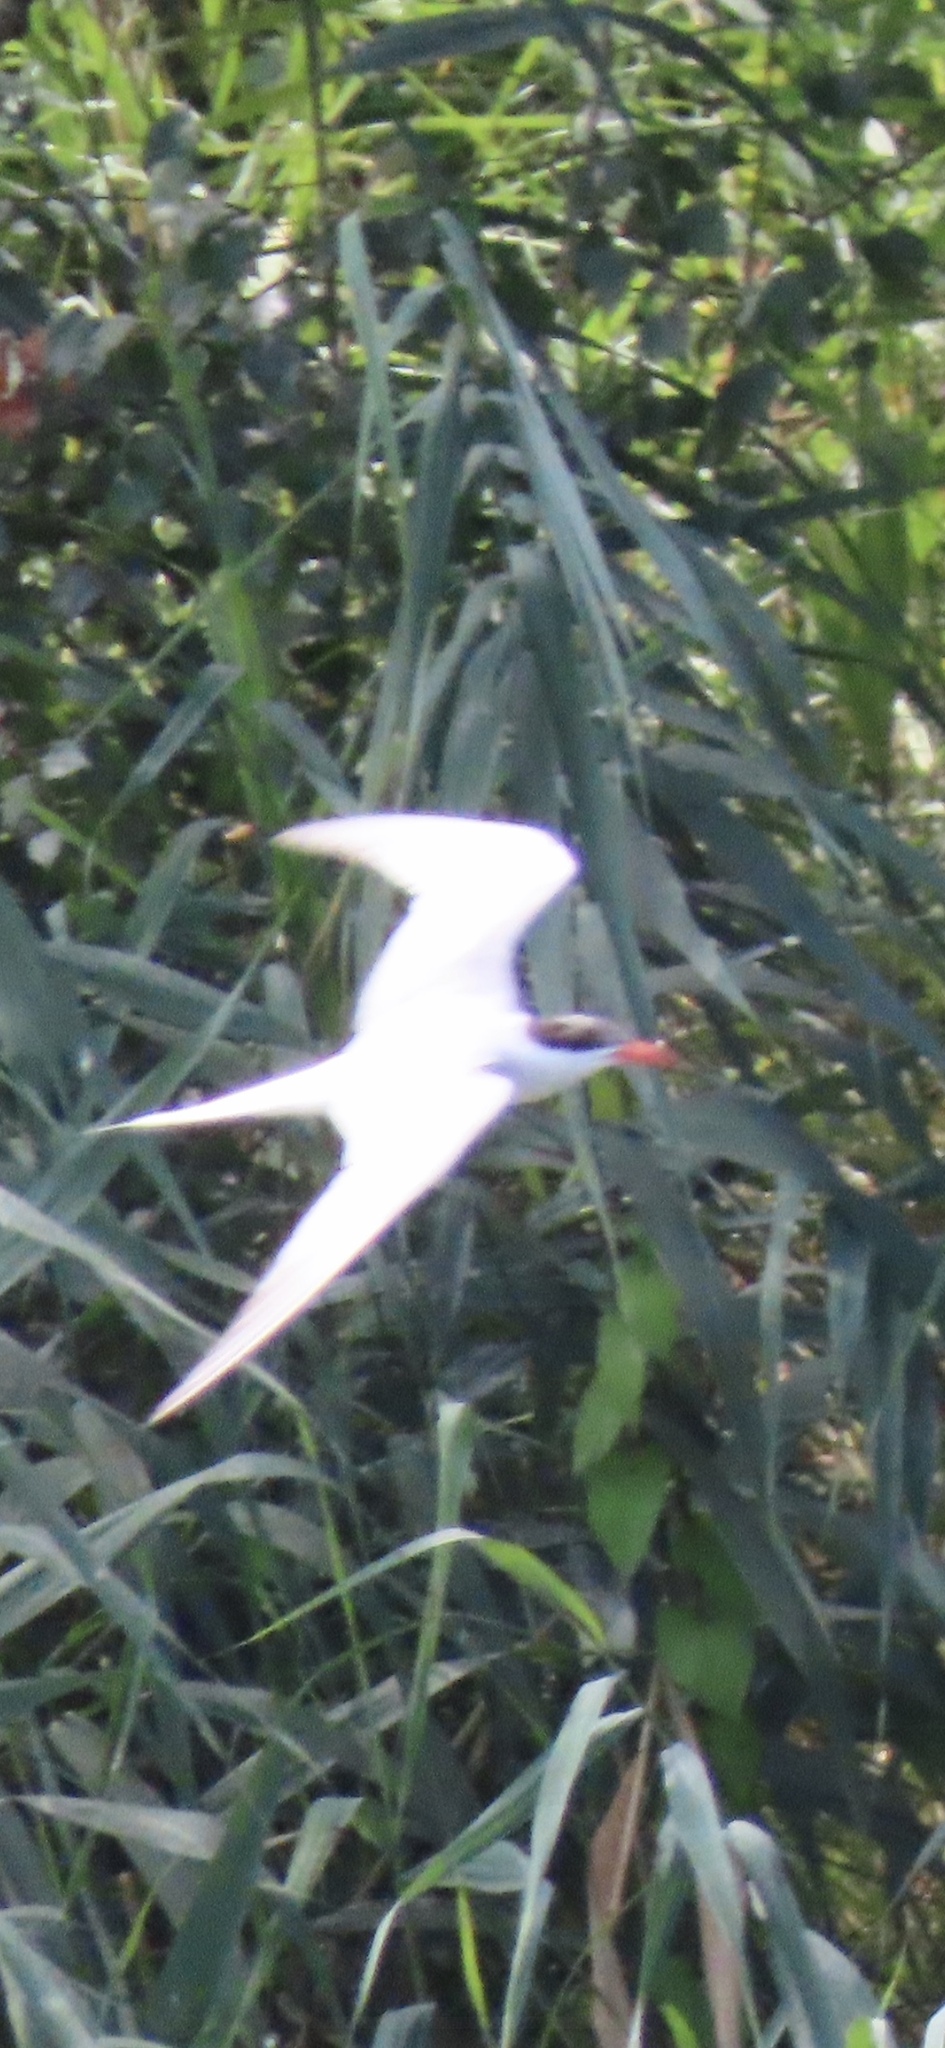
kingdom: Animalia
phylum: Chordata
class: Aves
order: Charadriiformes
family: Laridae
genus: Sterna
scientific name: Sterna hirundo
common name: Common tern
